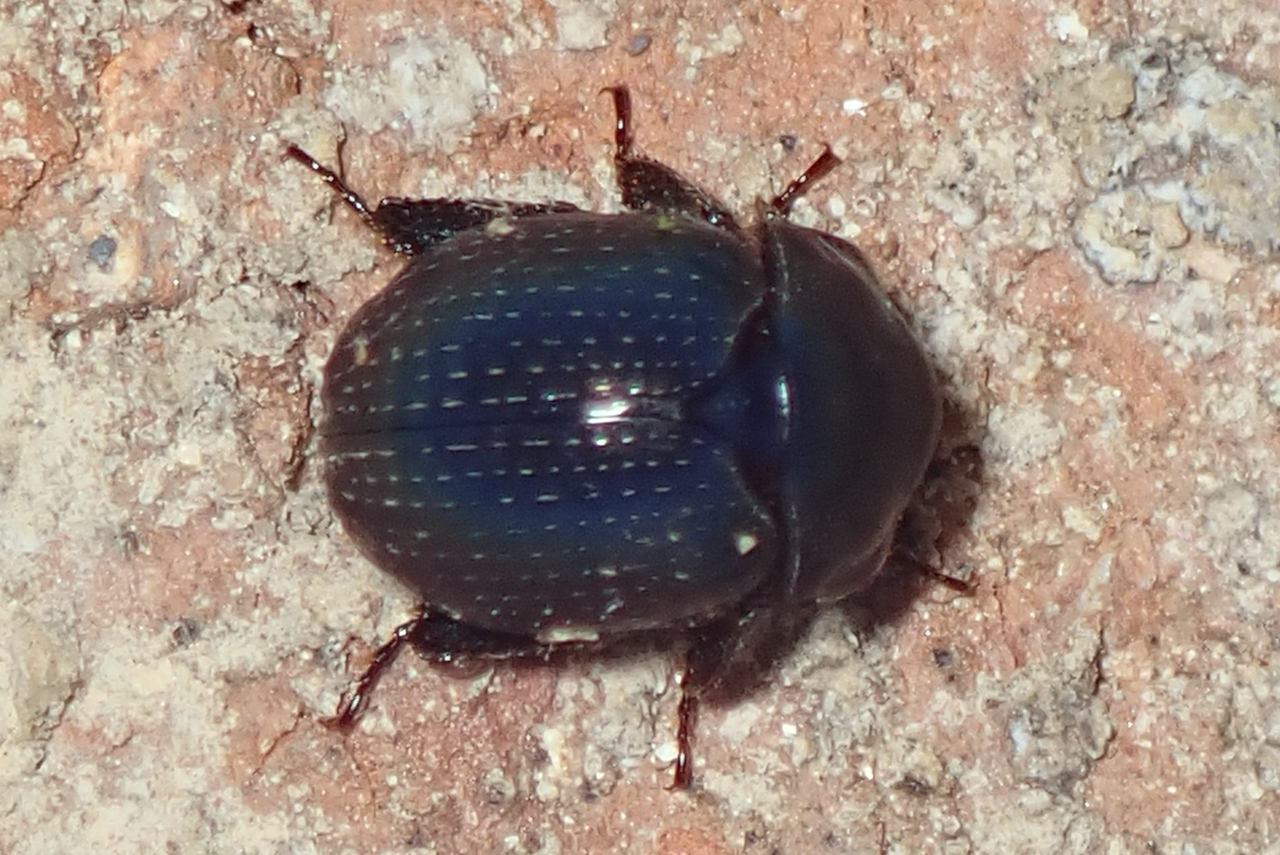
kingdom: Animalia
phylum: Arthropoda
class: Insecta
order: Coleoptera
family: Hybosoridae
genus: Germarostes
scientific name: Germarostes globosus
